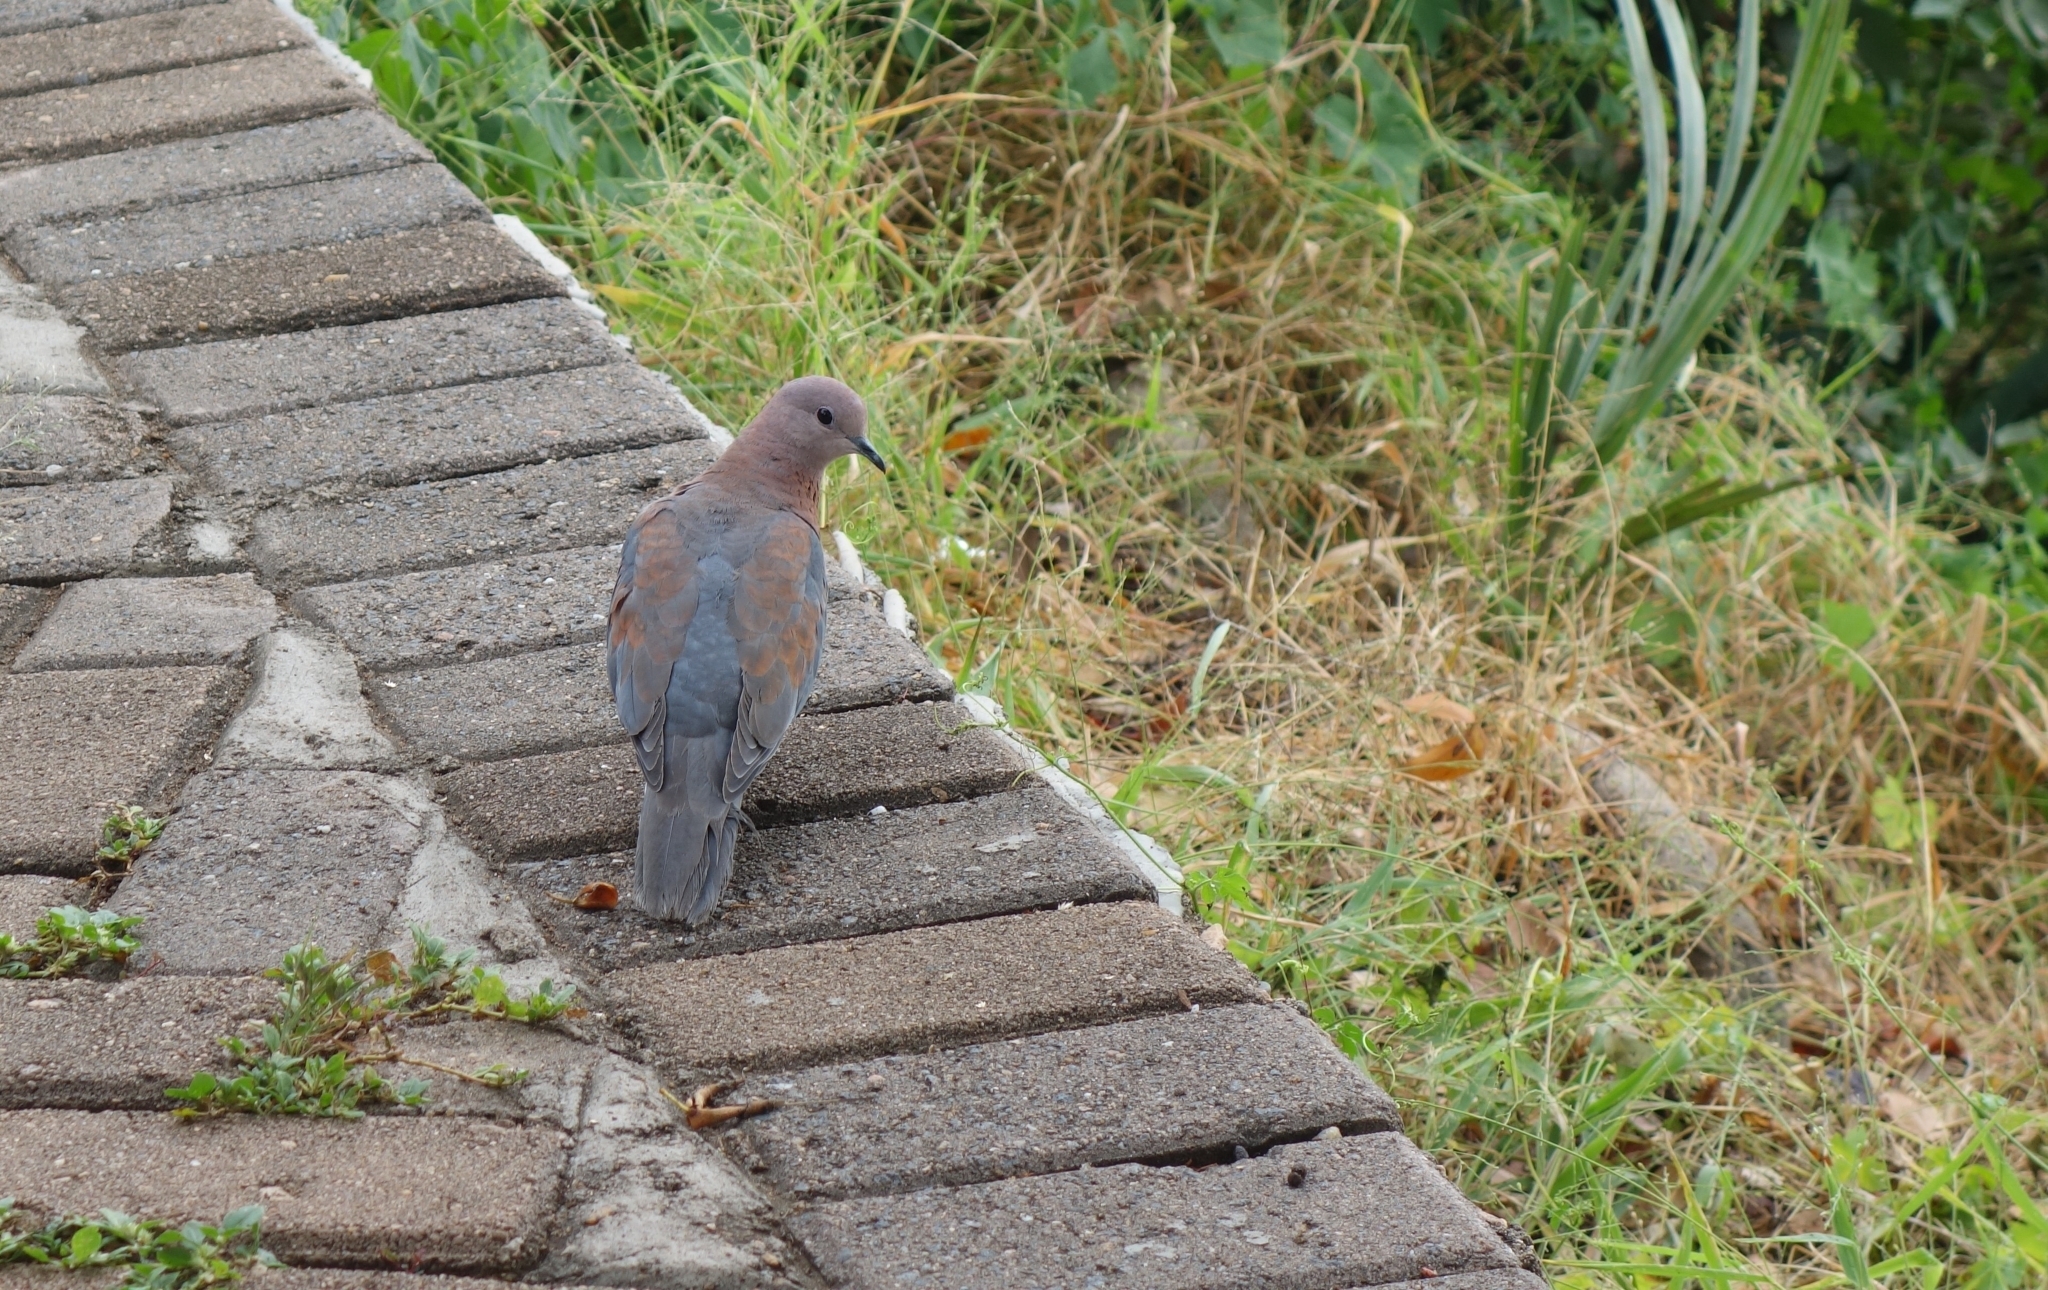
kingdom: Animalia
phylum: Chordata
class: Aves
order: Columbiformes
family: Columbidae
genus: Spilopelia
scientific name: Spilopelia senegalensis
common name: Laughing dove
